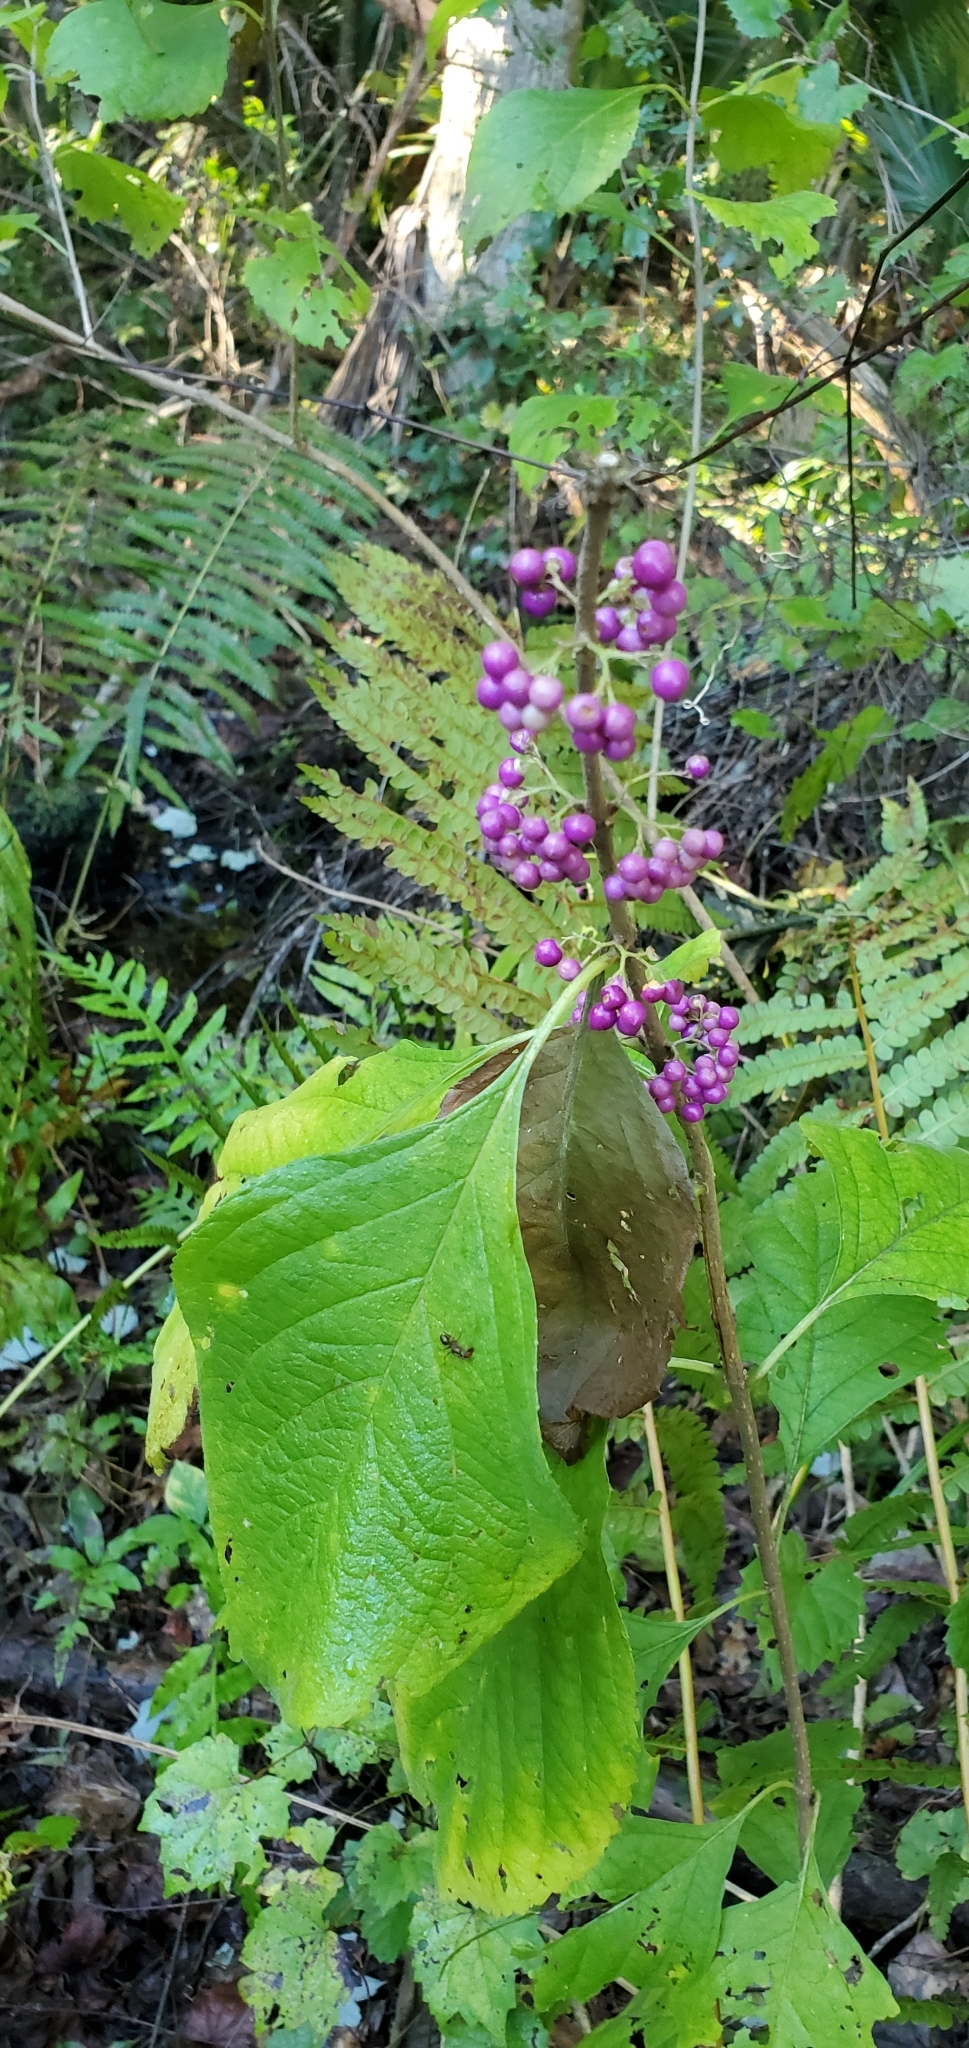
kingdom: Plantae
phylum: Tracheophyta
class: Magnoliopsida
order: Lamiales
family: Lamiaceae
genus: Callicarpa
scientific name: Callicarpa americana
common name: American beautyberry
